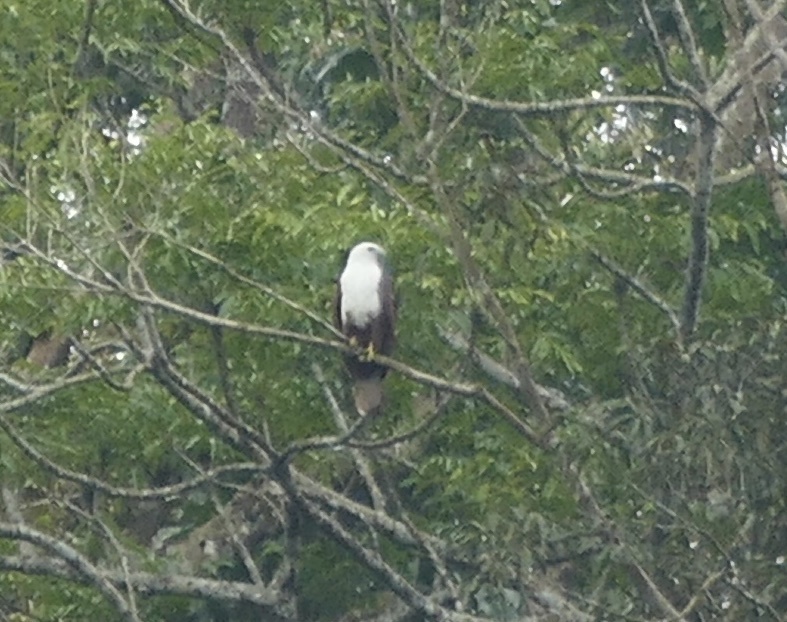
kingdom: Animalia
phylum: Chordata
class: Aves
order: Accipitriformes
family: Accipitridae
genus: Haliastur
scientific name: Haliastur indus
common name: Brahminy kite
